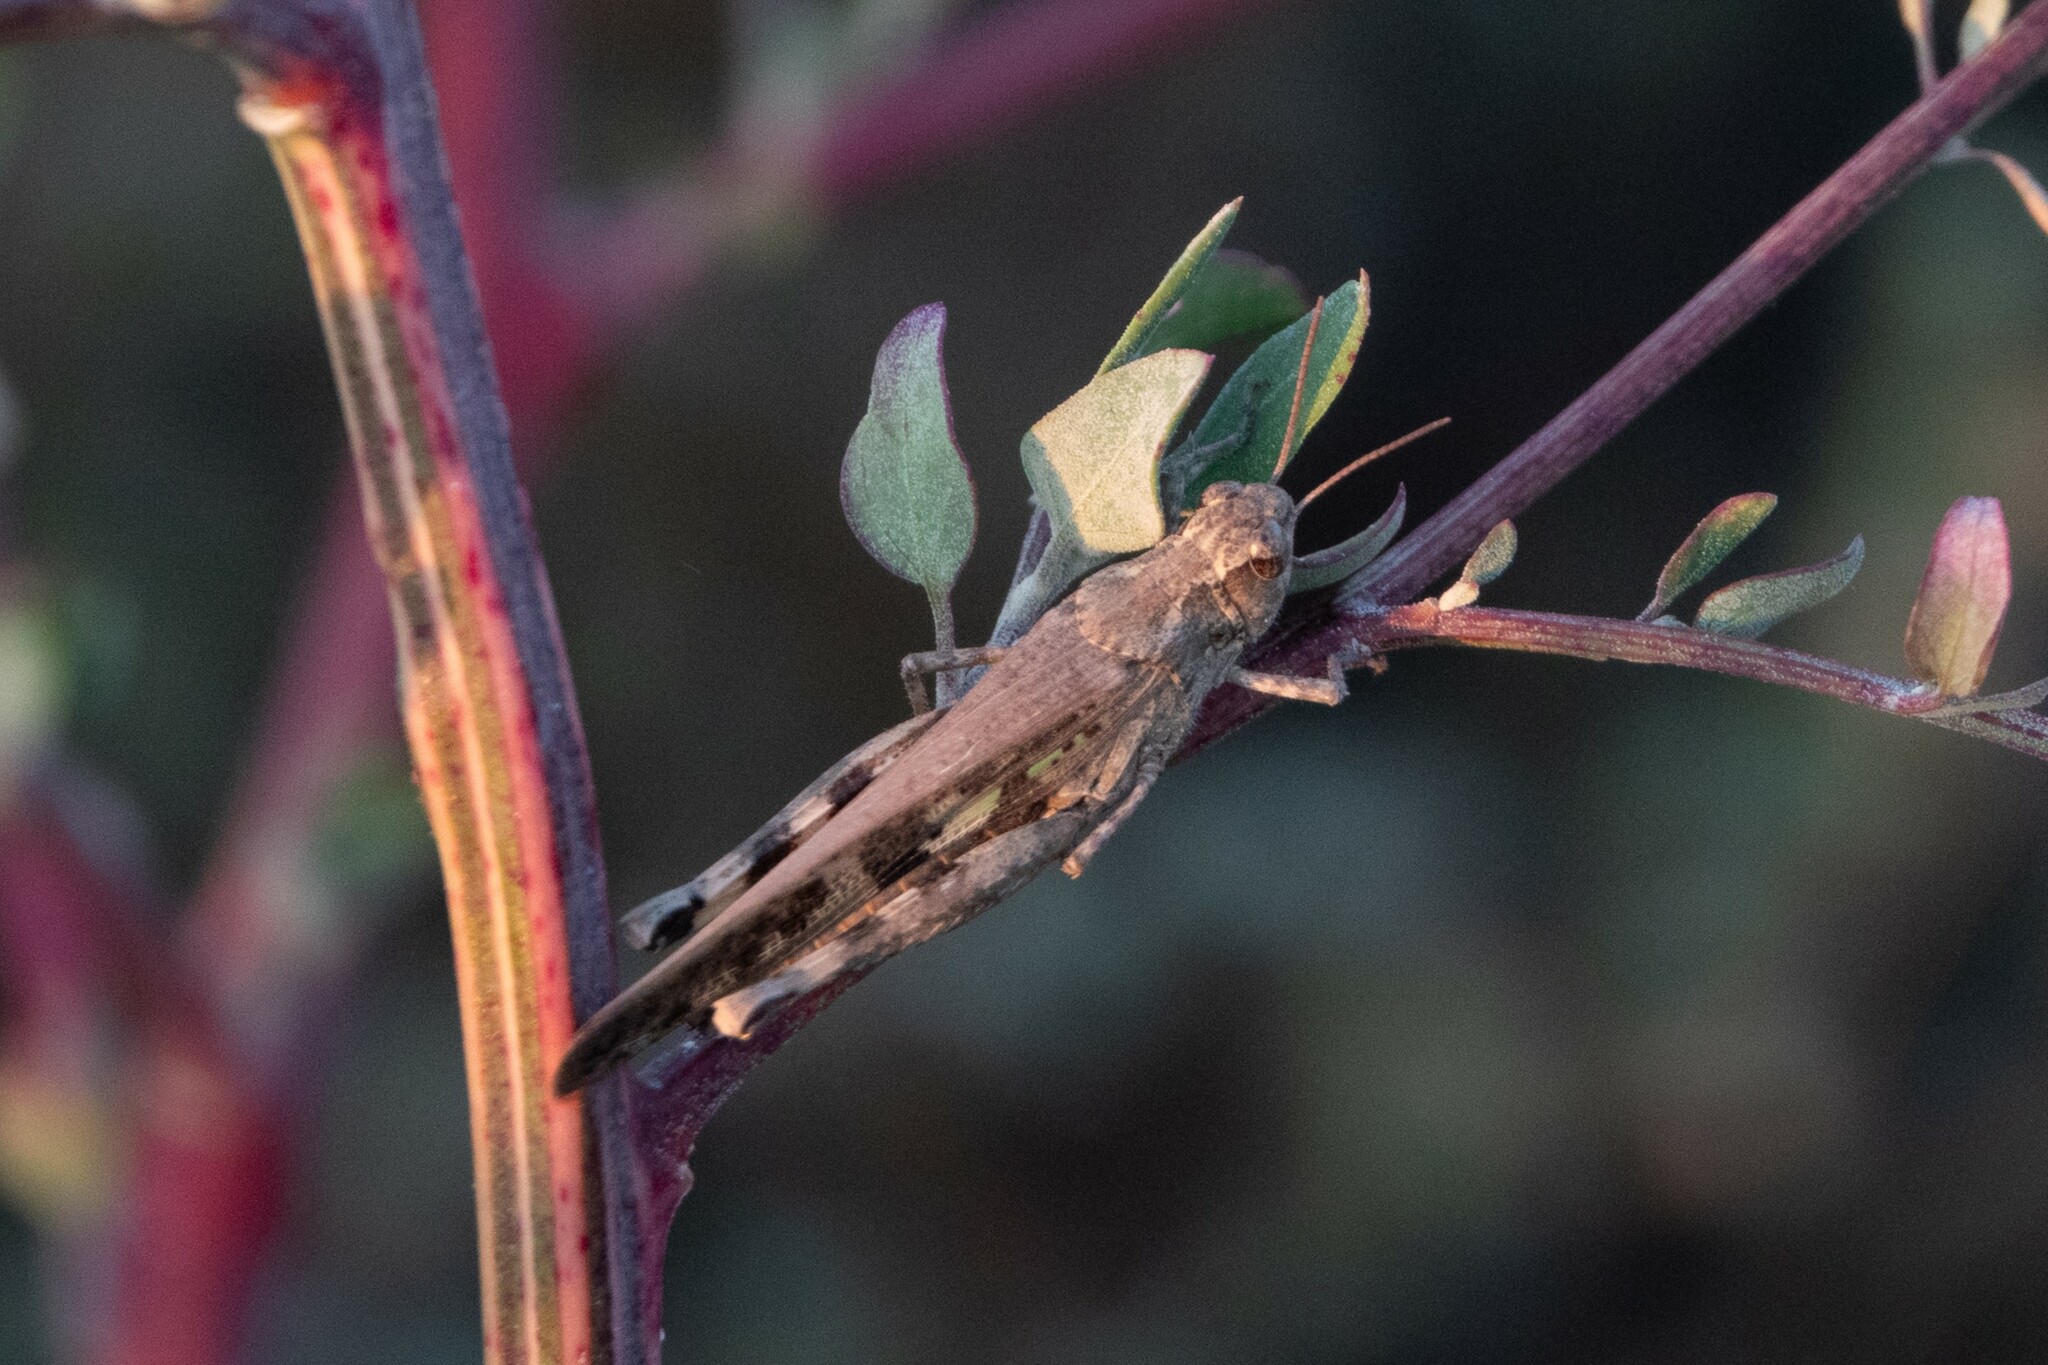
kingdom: Animalia
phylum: Arthropoda
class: Insecta
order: Orthoptera
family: Acrididae
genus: Aiolopus
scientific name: Aiolopus strepens
